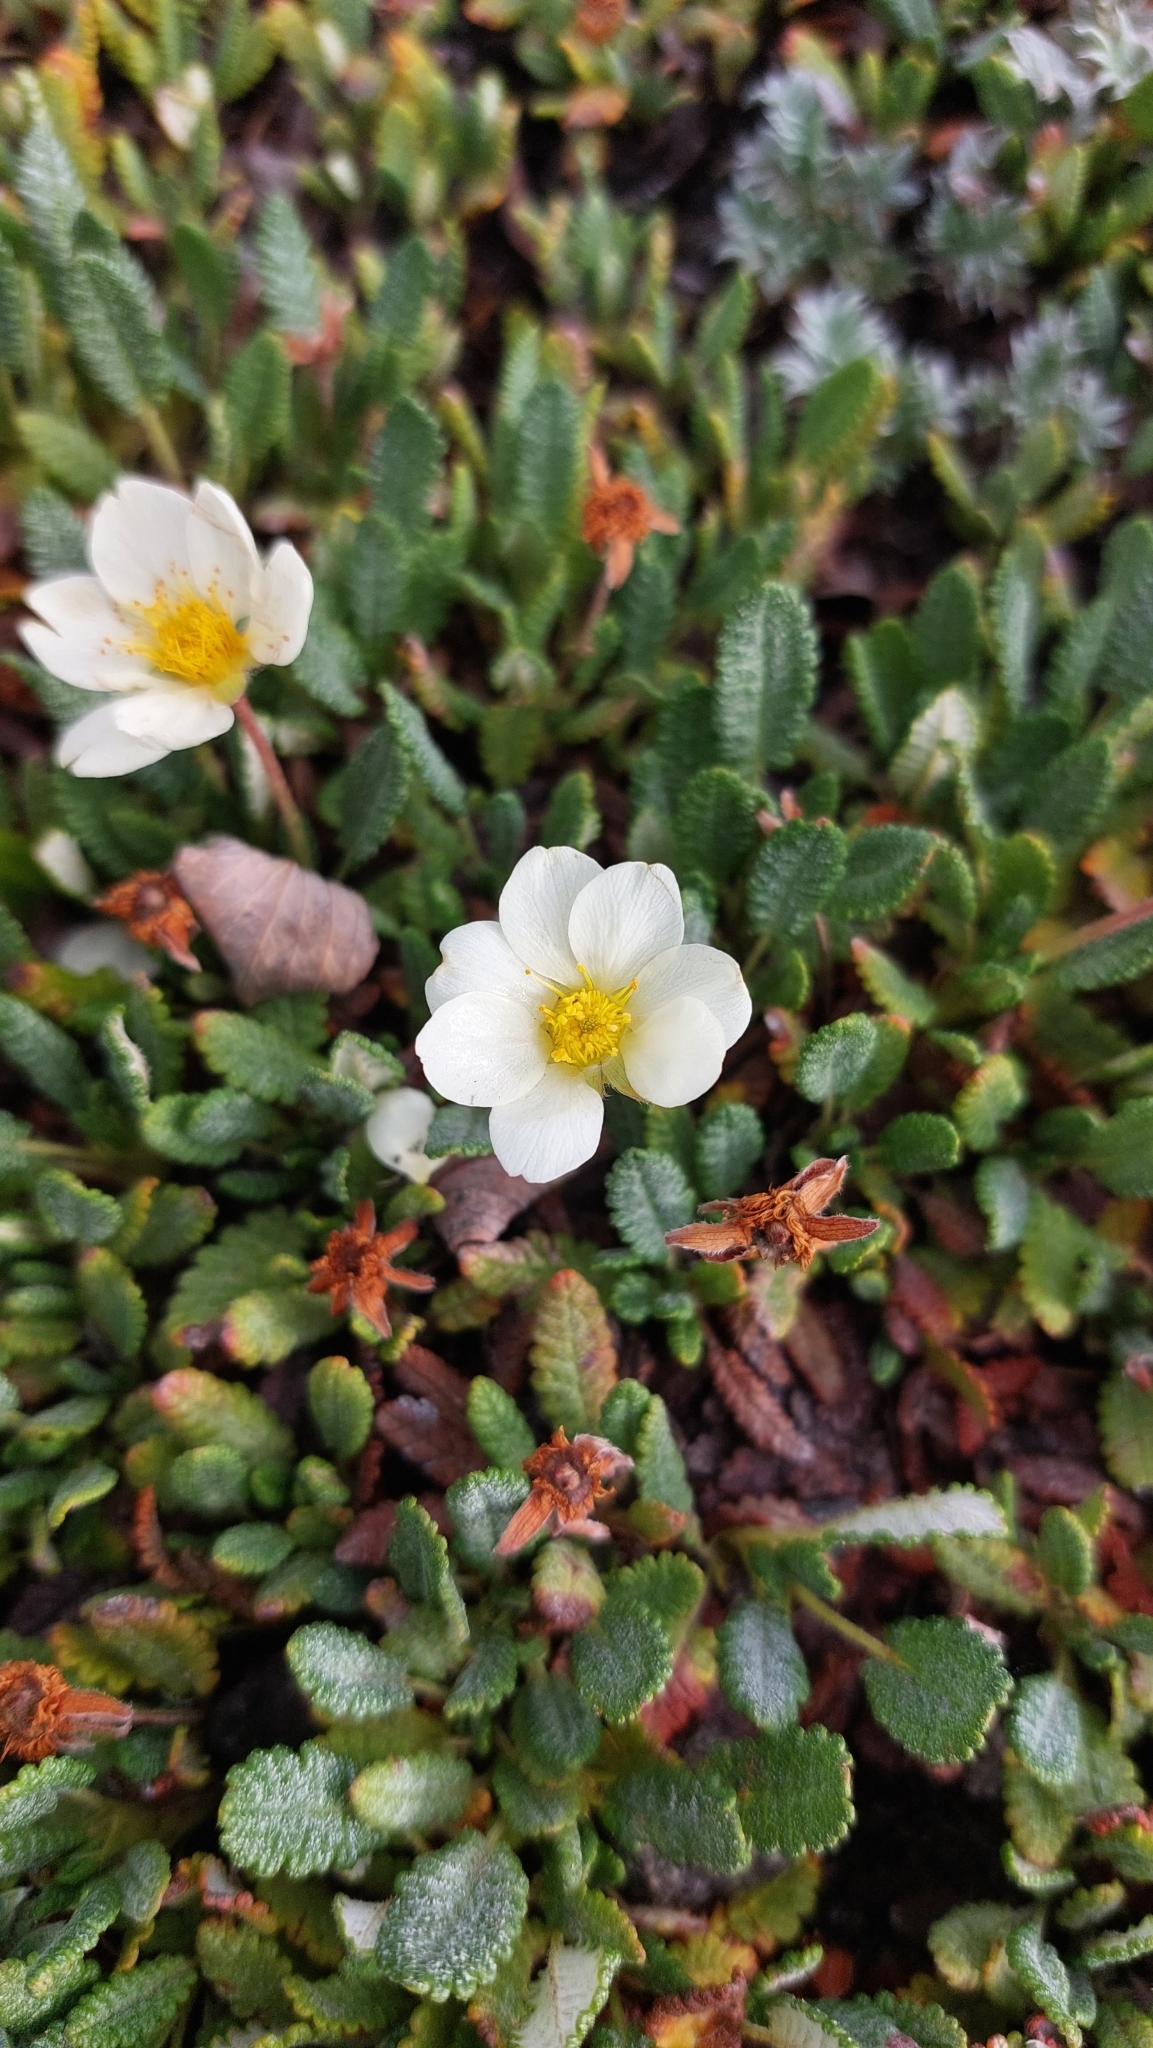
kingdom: Plantae
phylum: Tracheophyta
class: Magnoliopsida
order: Rosales
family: Rosaceae
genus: Dryas
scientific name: Dryas octopetala
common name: Eight-petal mountain-avens
